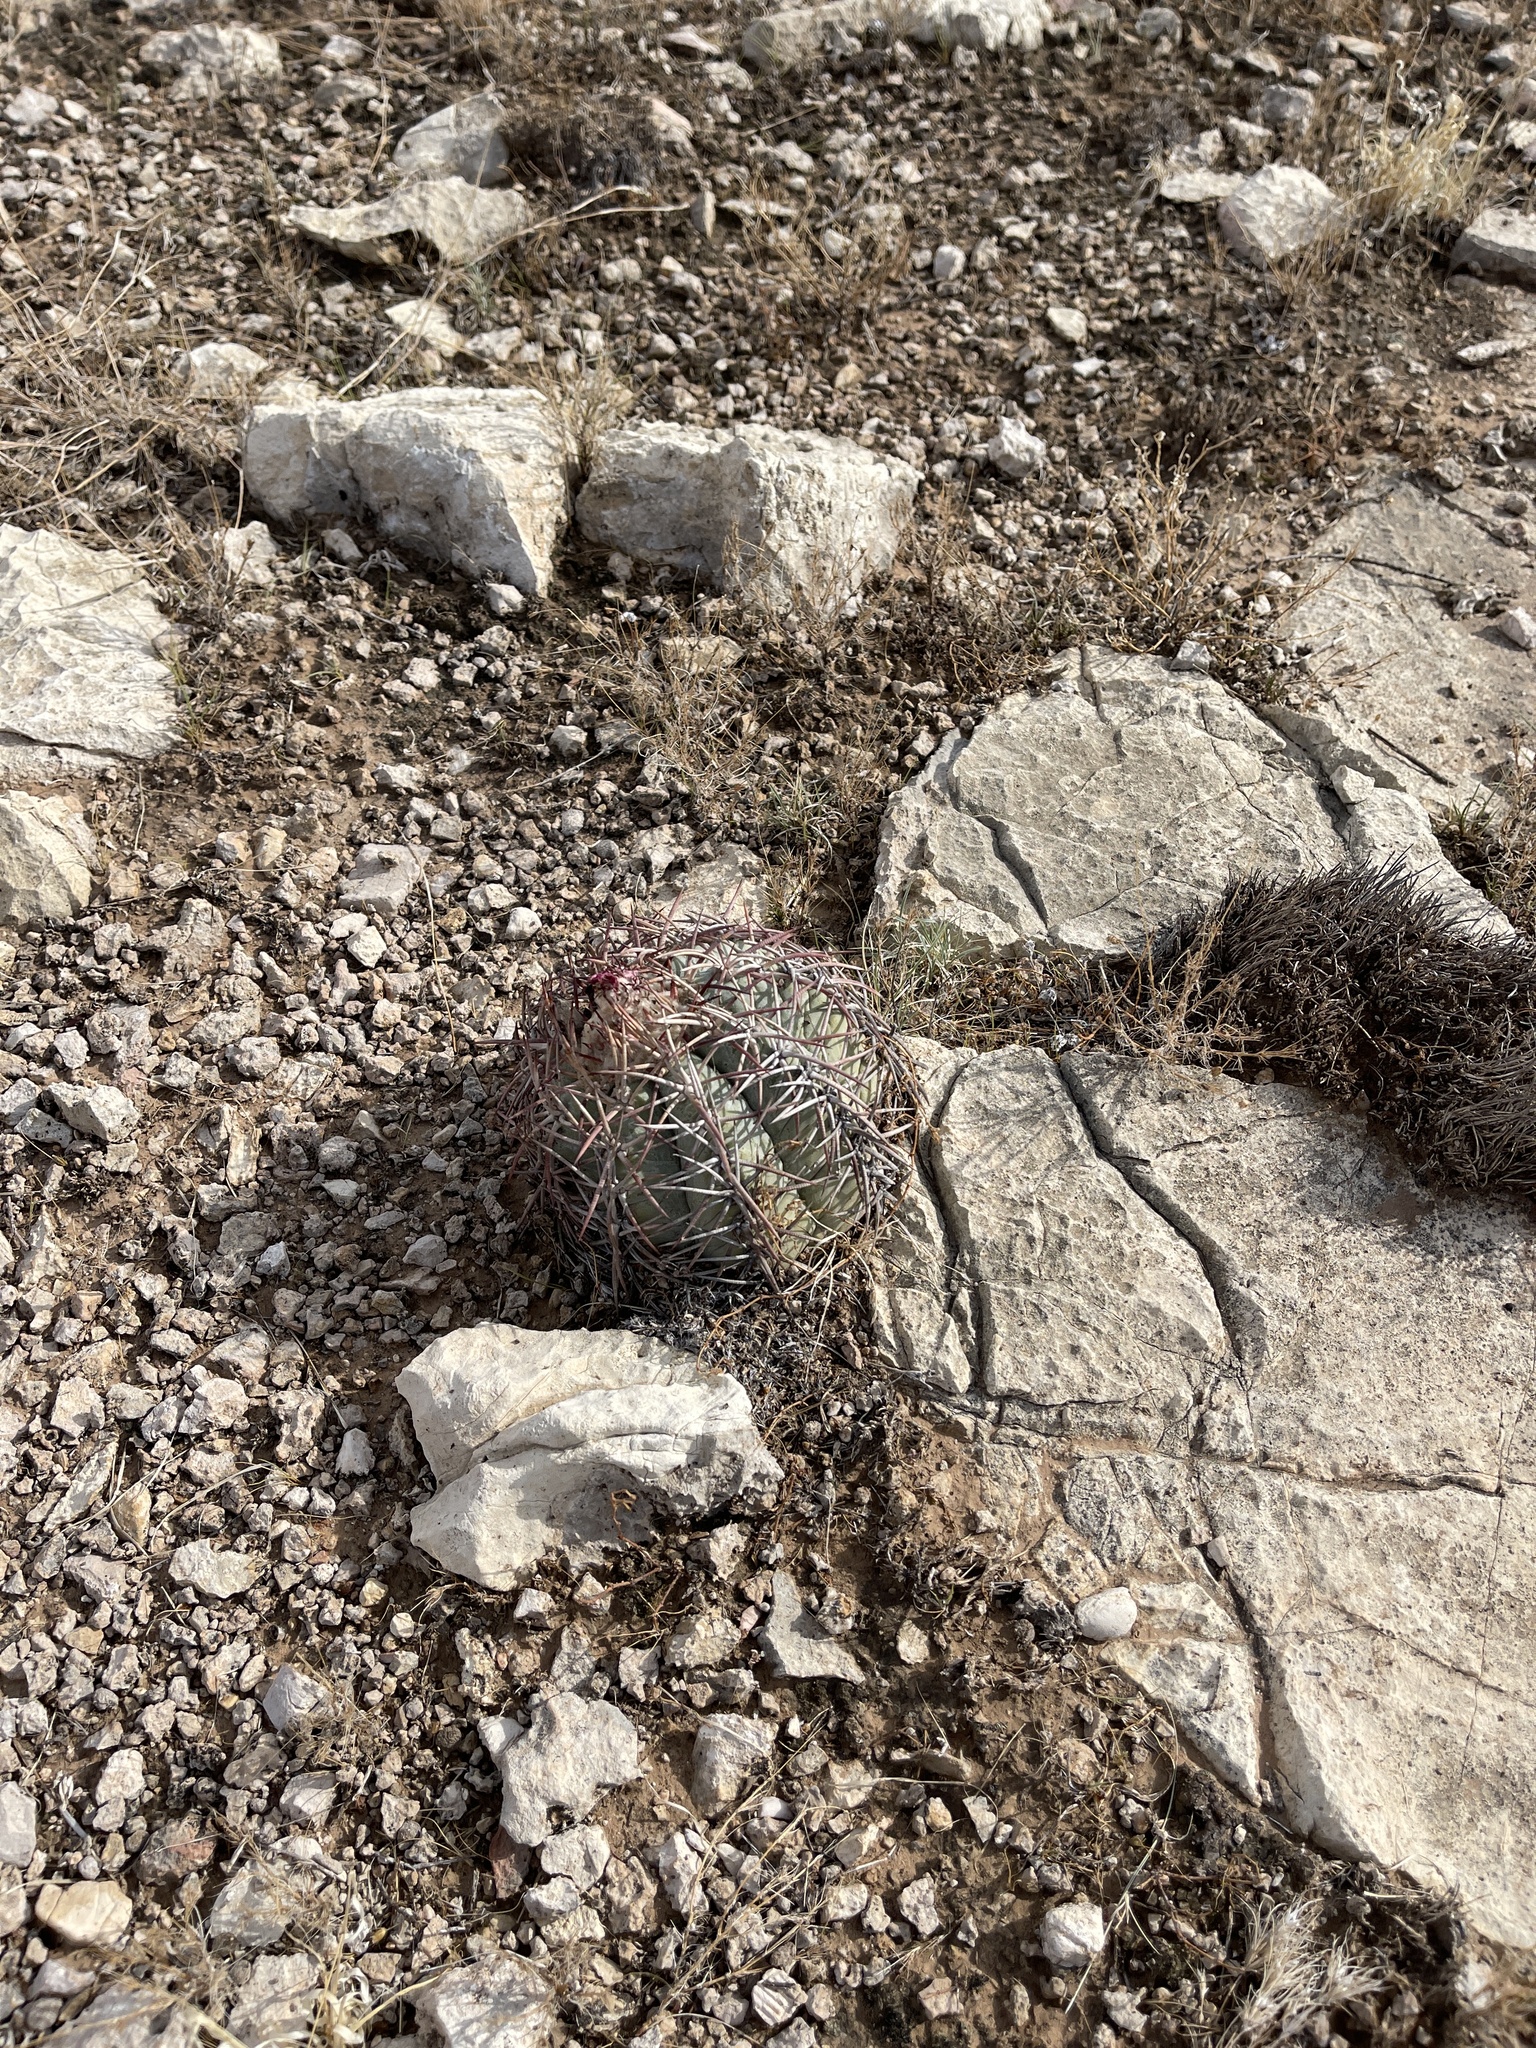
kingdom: Plantae
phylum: Tracheophyta
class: Magnoliopsida
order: Caryophyllales
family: Cactaceae
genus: Echinocactus
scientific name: Echinocactus horizonthalonius
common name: Devilshead
